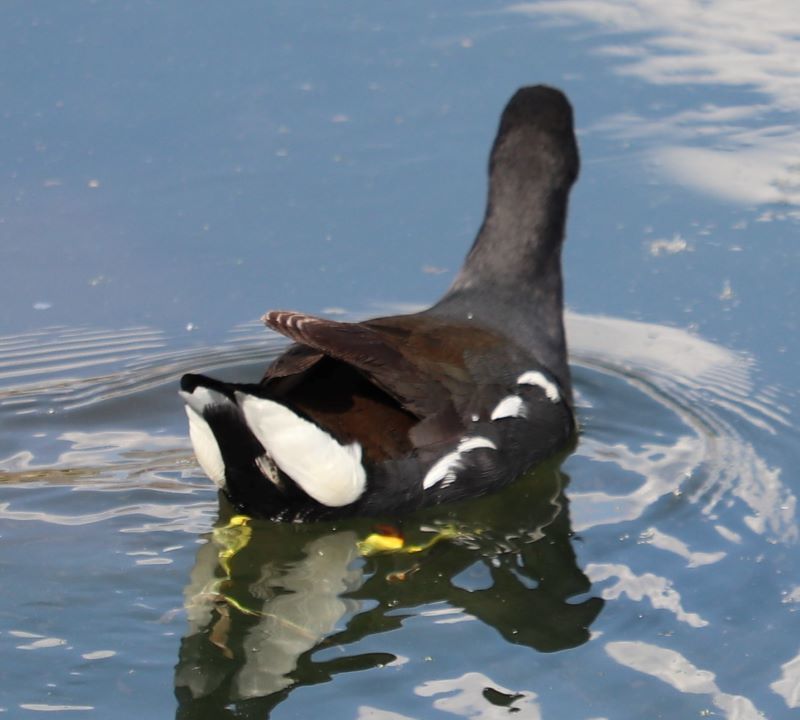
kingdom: Animalia
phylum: Chordata
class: Aves
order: Gruiformes
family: Rallidae
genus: Gallinula
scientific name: Gallinula chloropus
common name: Common moorhen
